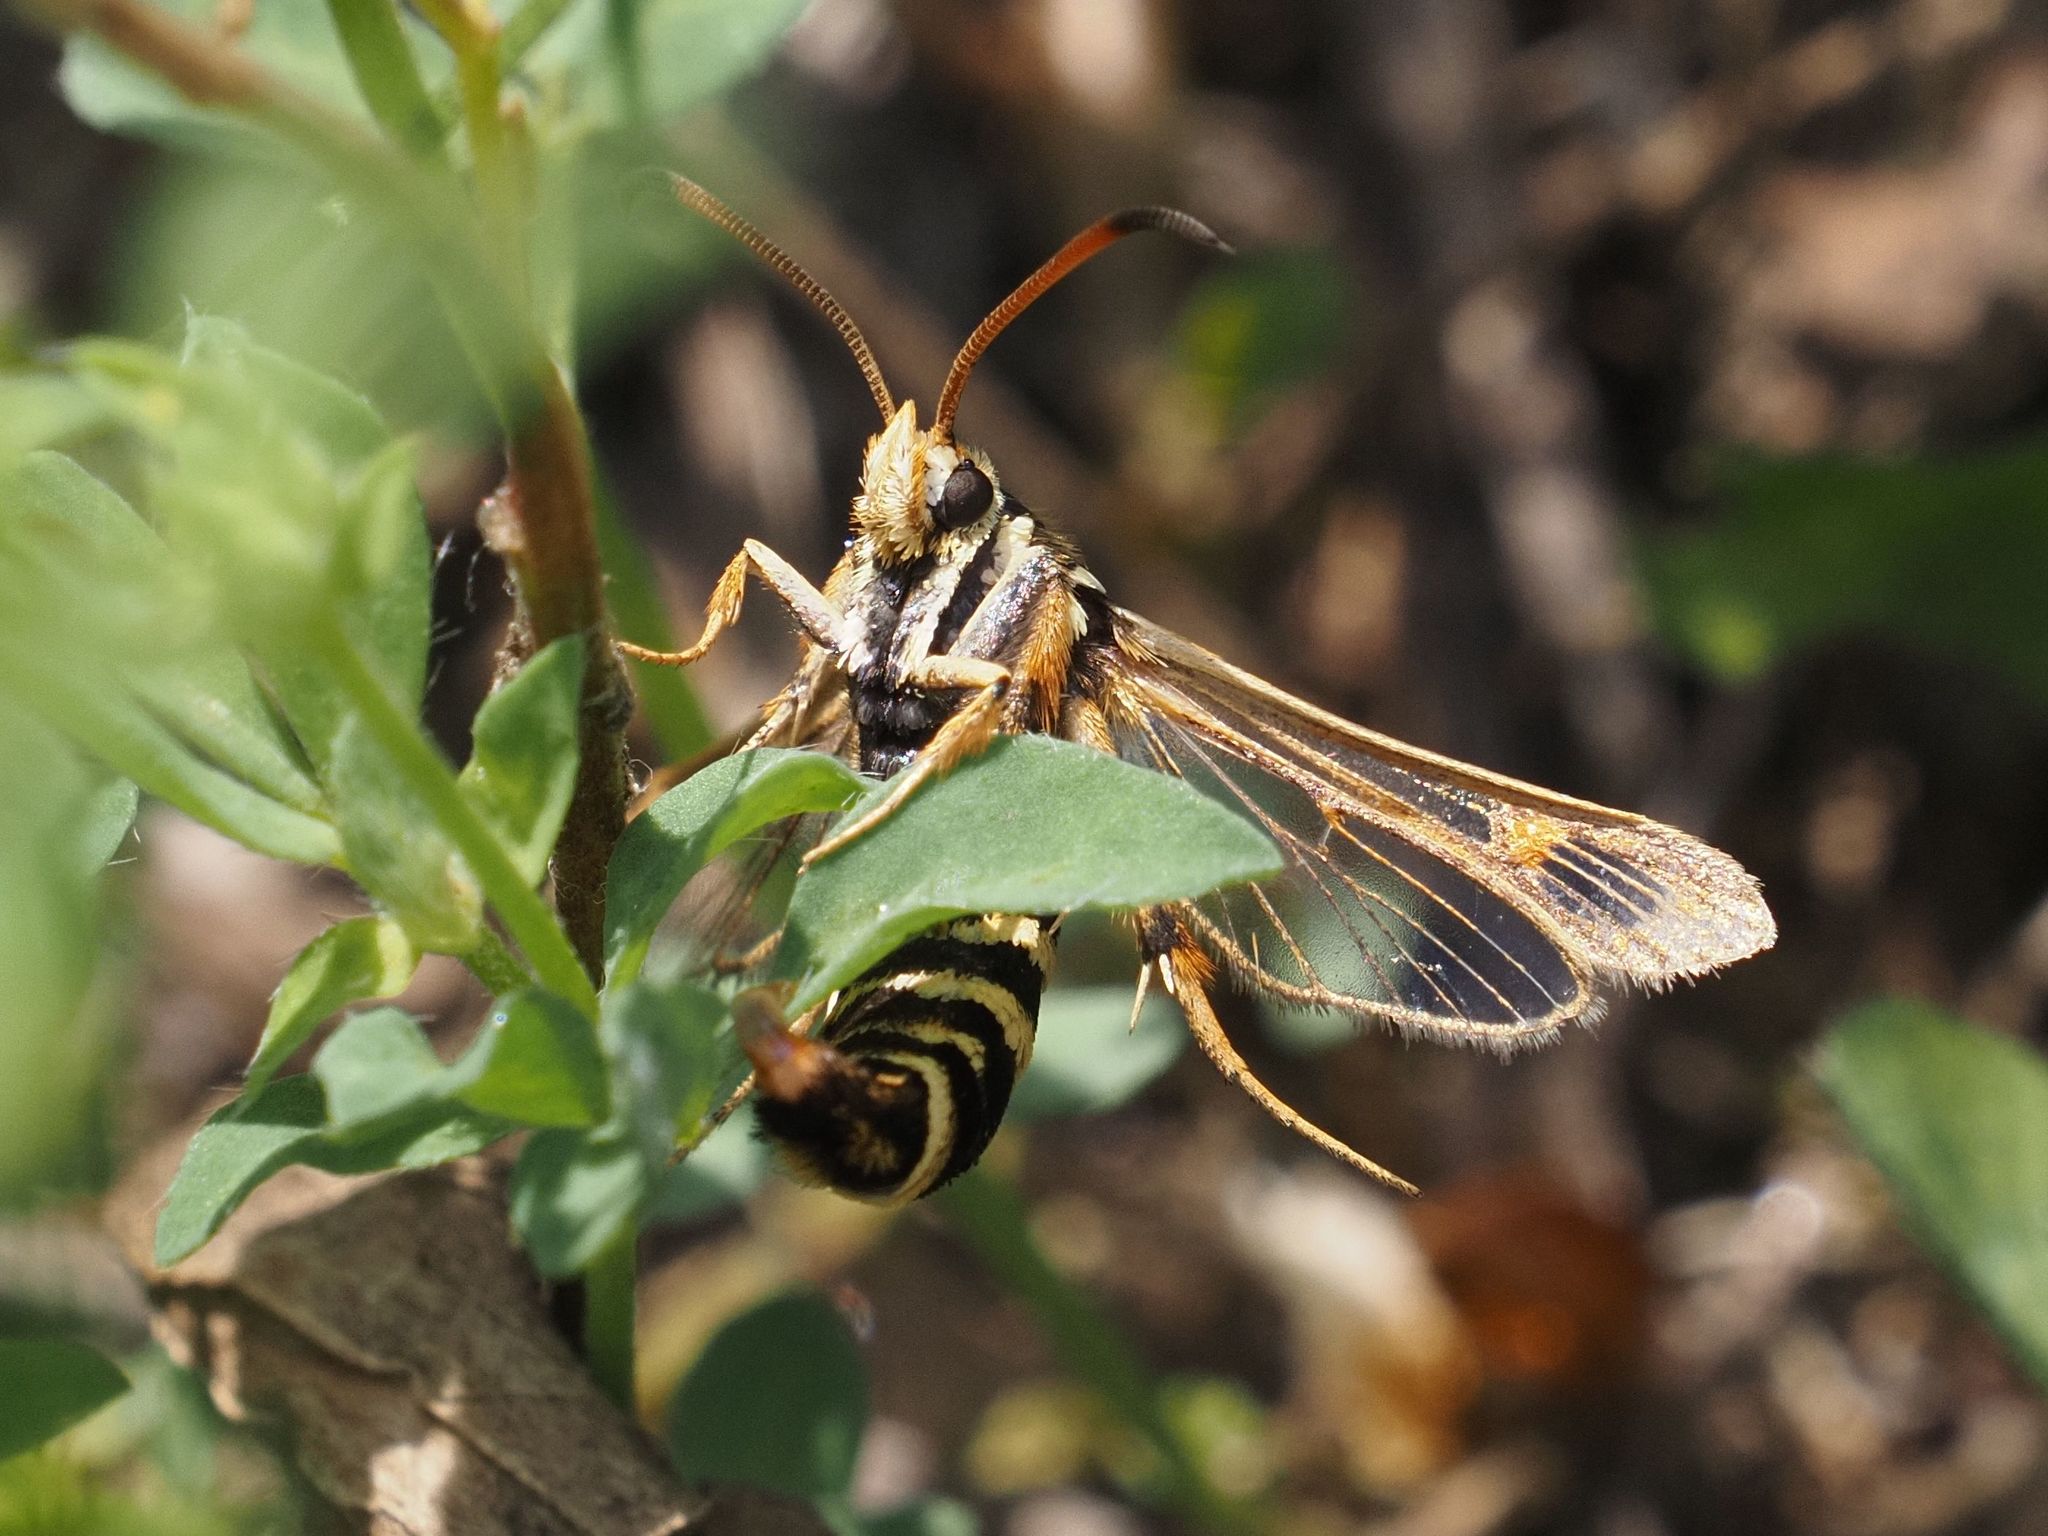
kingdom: Animalia
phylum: Arthropoda
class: Insecta
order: Lepidoptera
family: Sesiidae
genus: Bembecia
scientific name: Bembecia ichneumoniformis
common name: Six-belted clearwing
